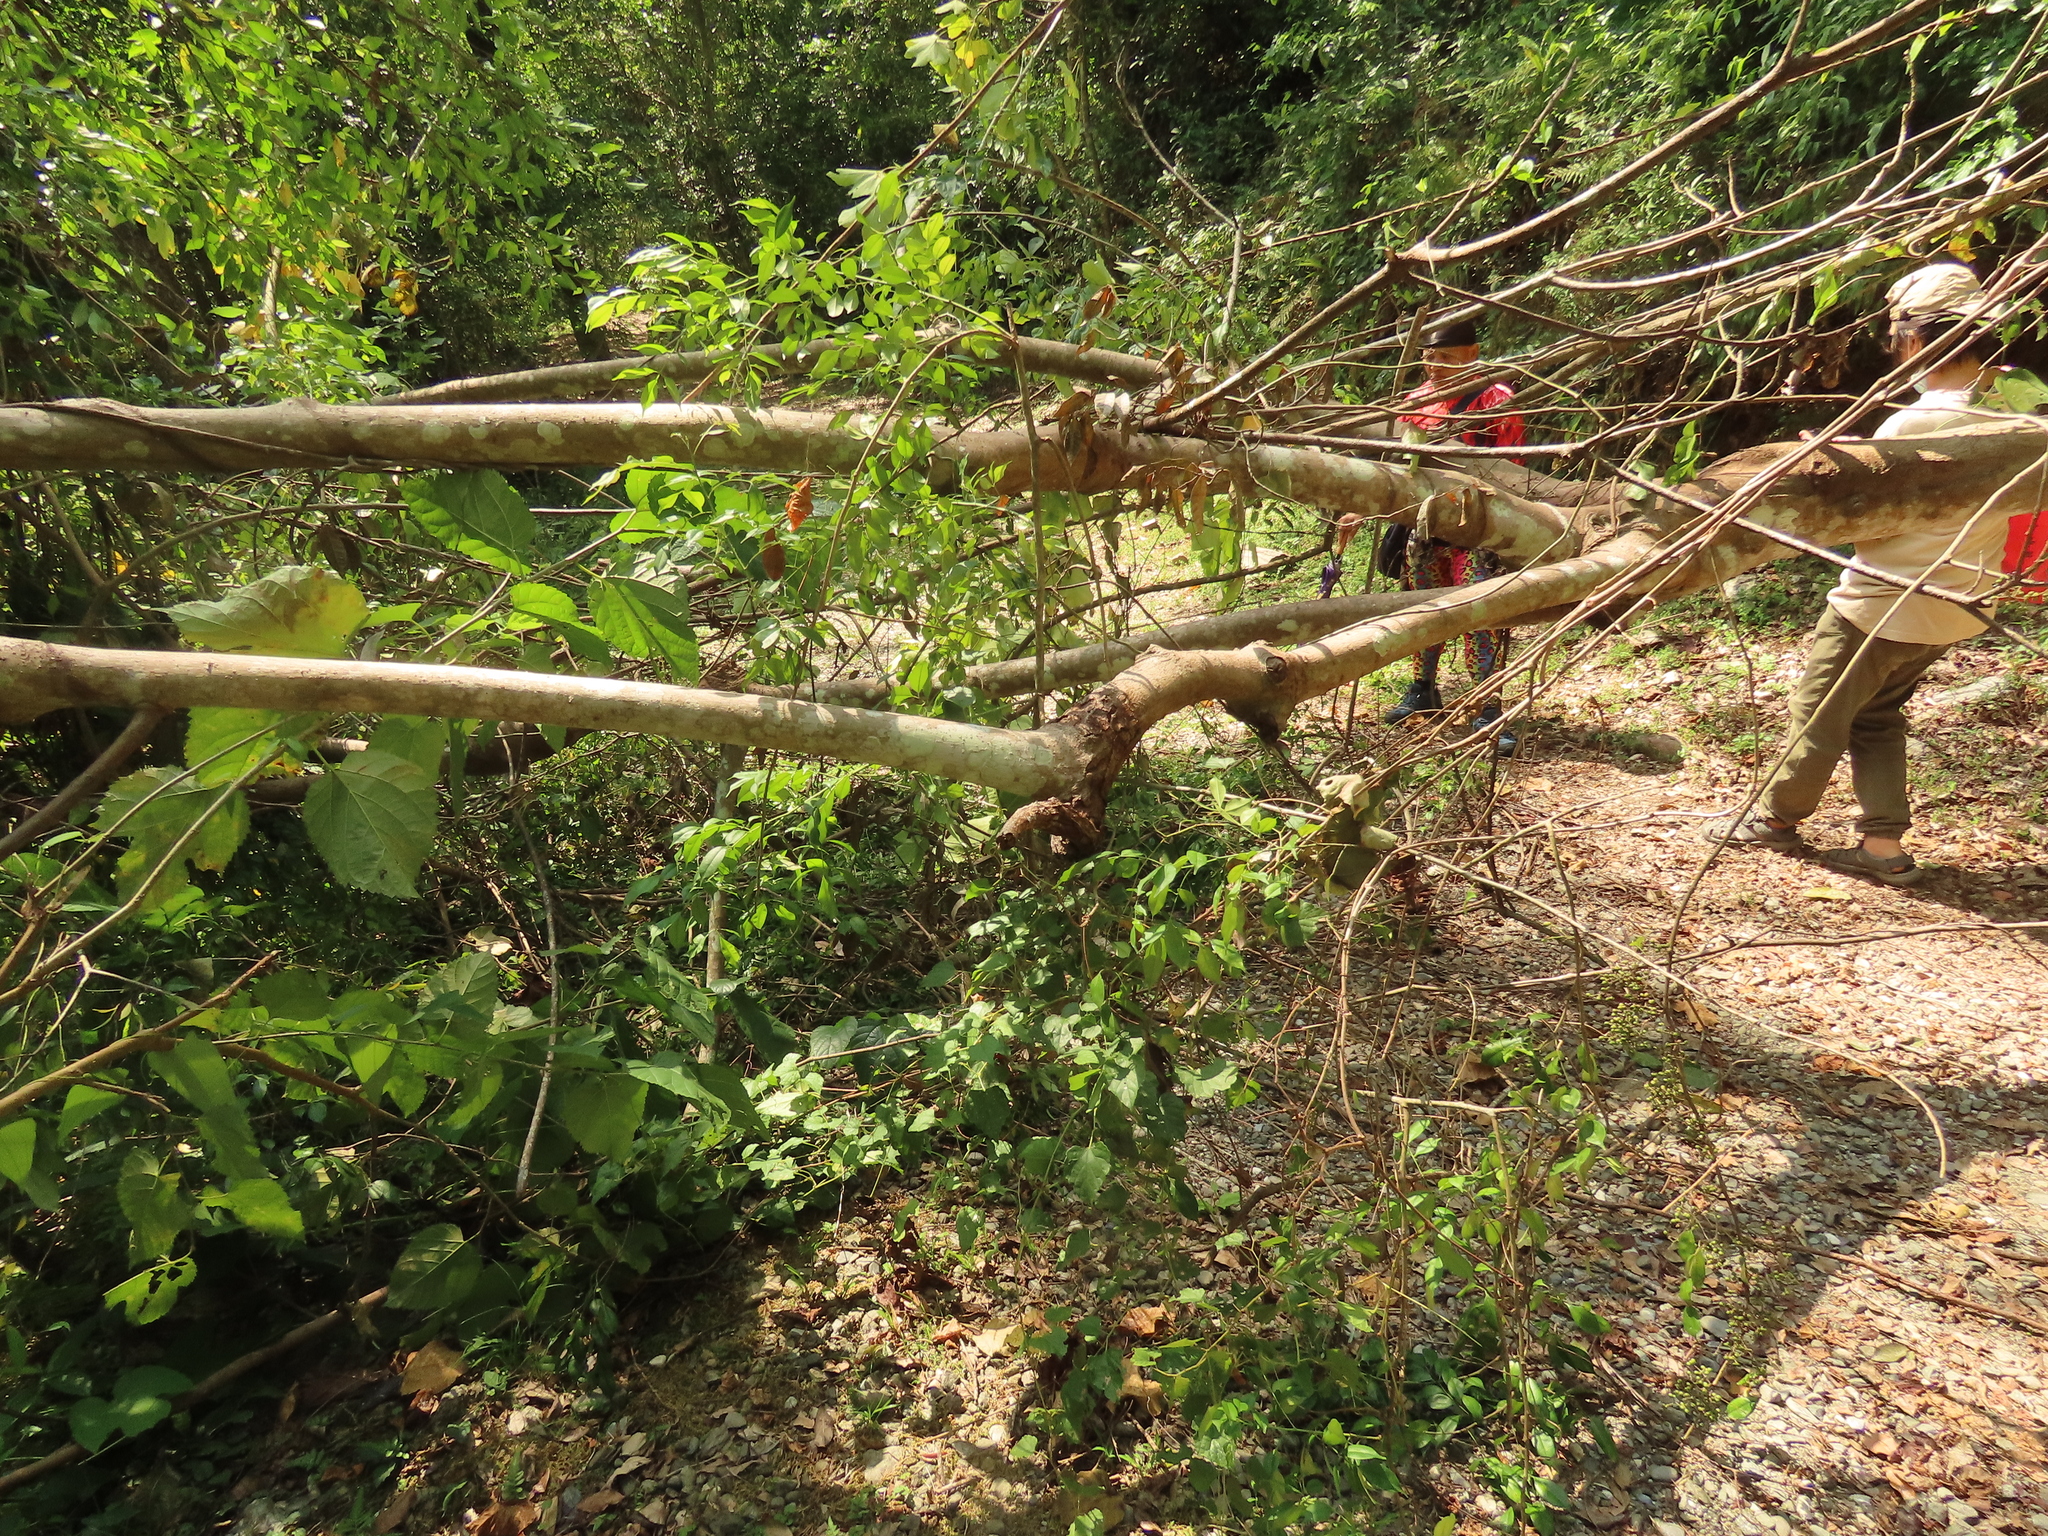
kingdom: Plantae
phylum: Tracheophyta
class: Magnoliopsida
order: Sapindales
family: Rutaceae
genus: Zanthoxylum
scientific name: Zanthoxylum scandens
